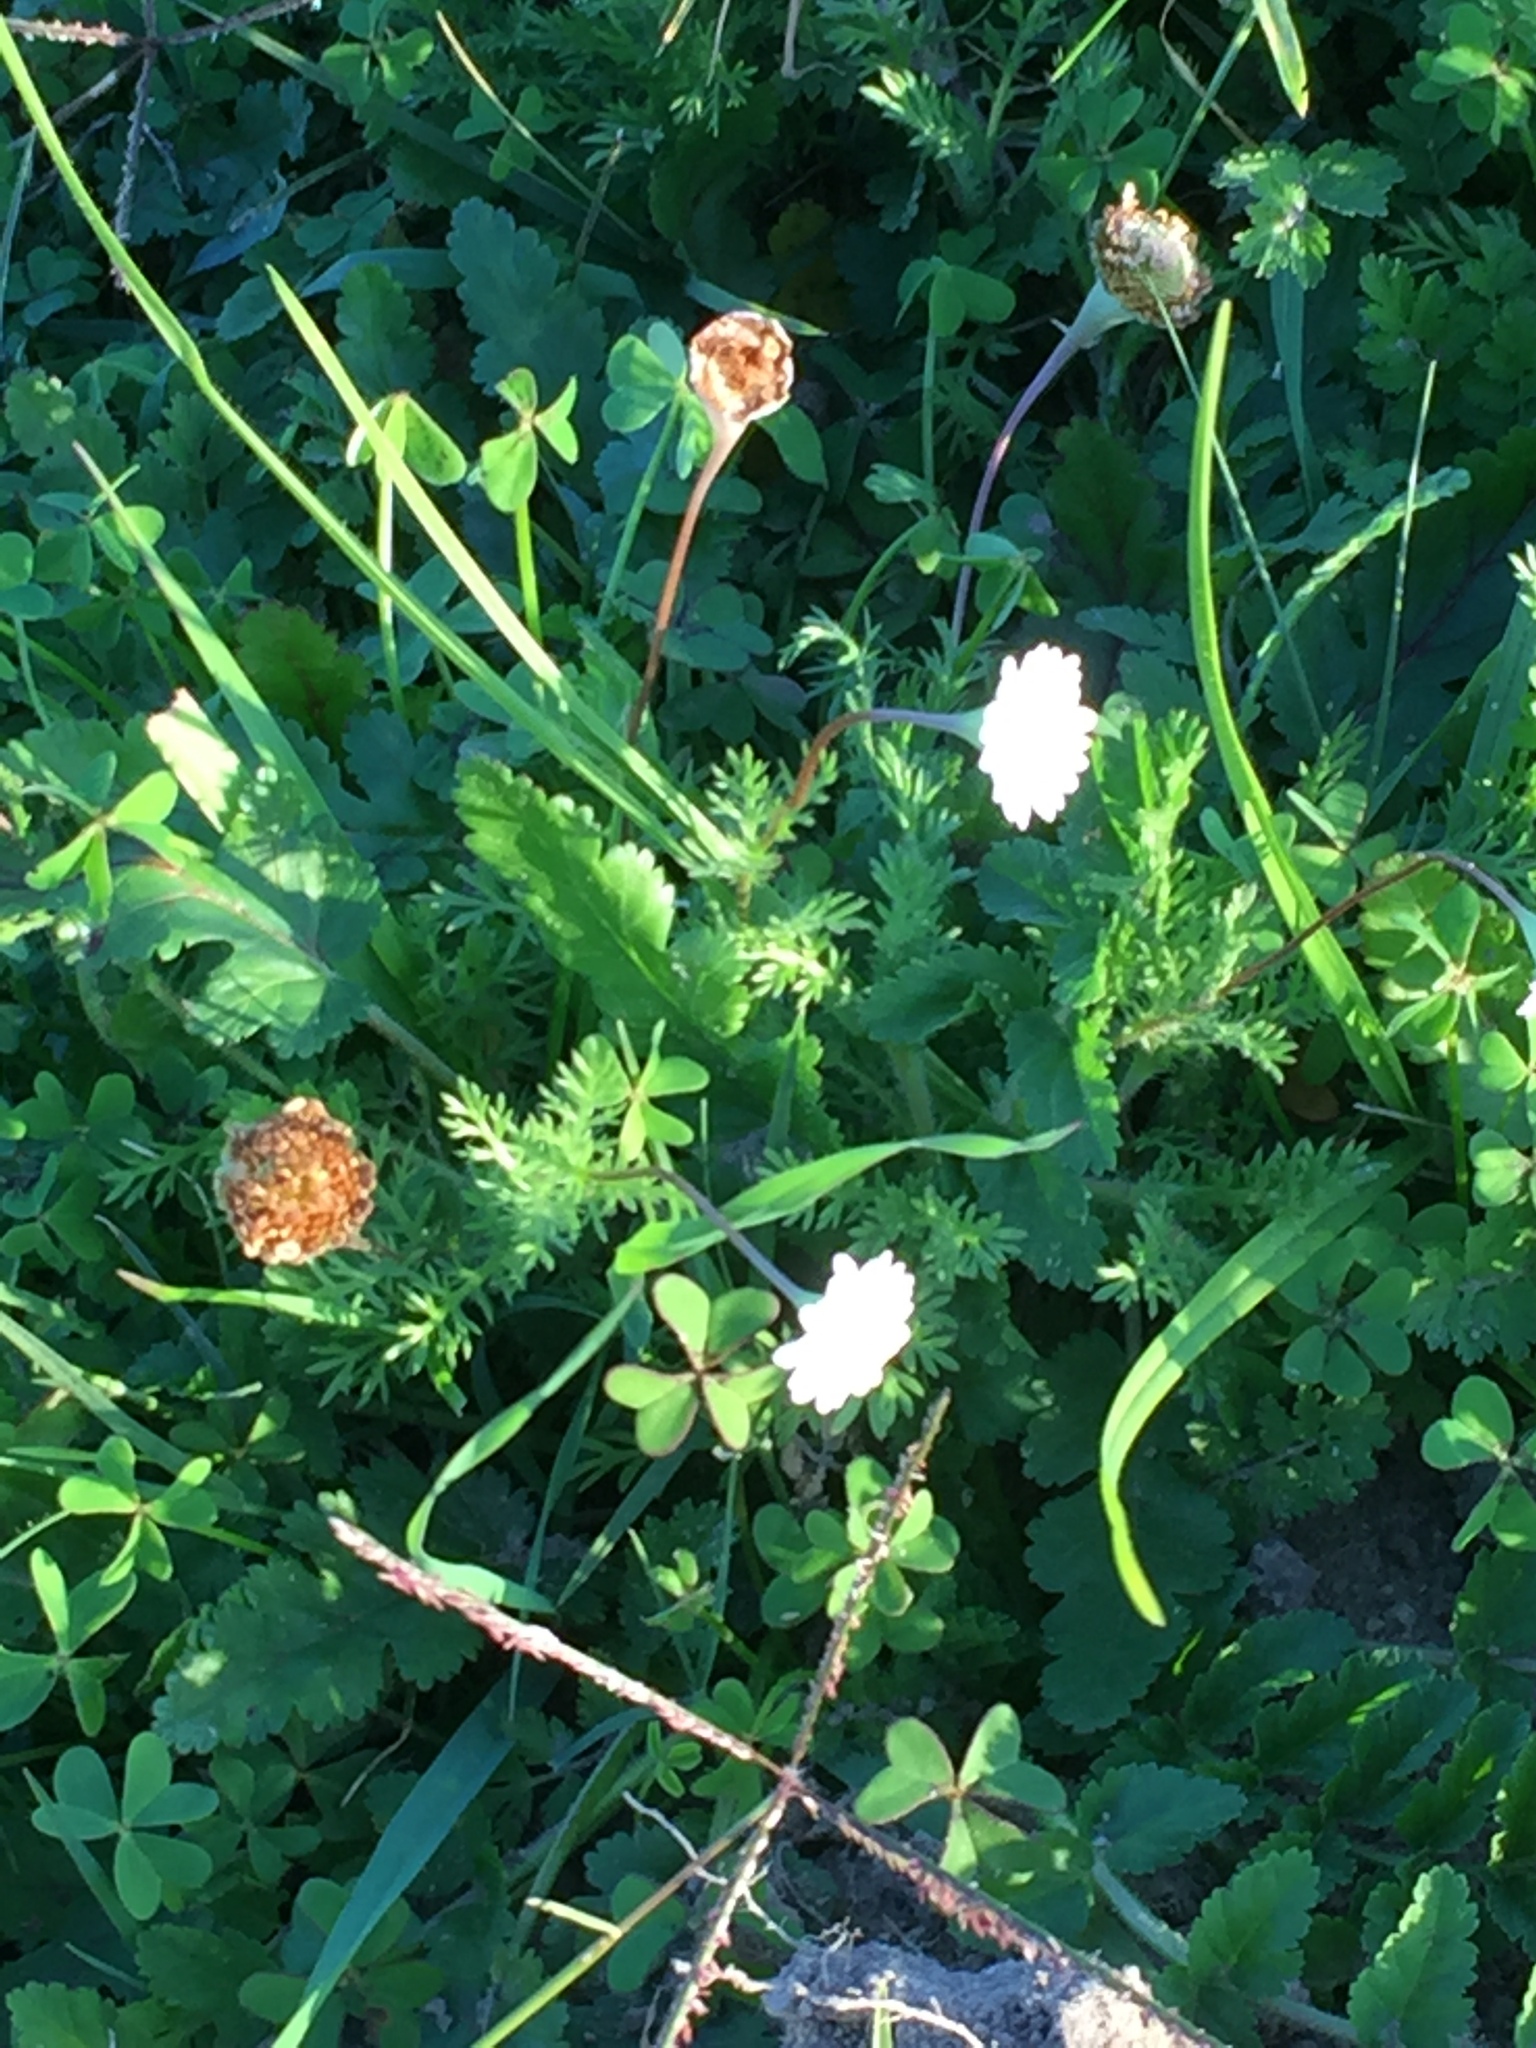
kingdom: Plantae
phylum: Tracheophyta
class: Magnoliopsida
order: Asterales
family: Asteraceae
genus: Cotula
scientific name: Cotula turbinata
